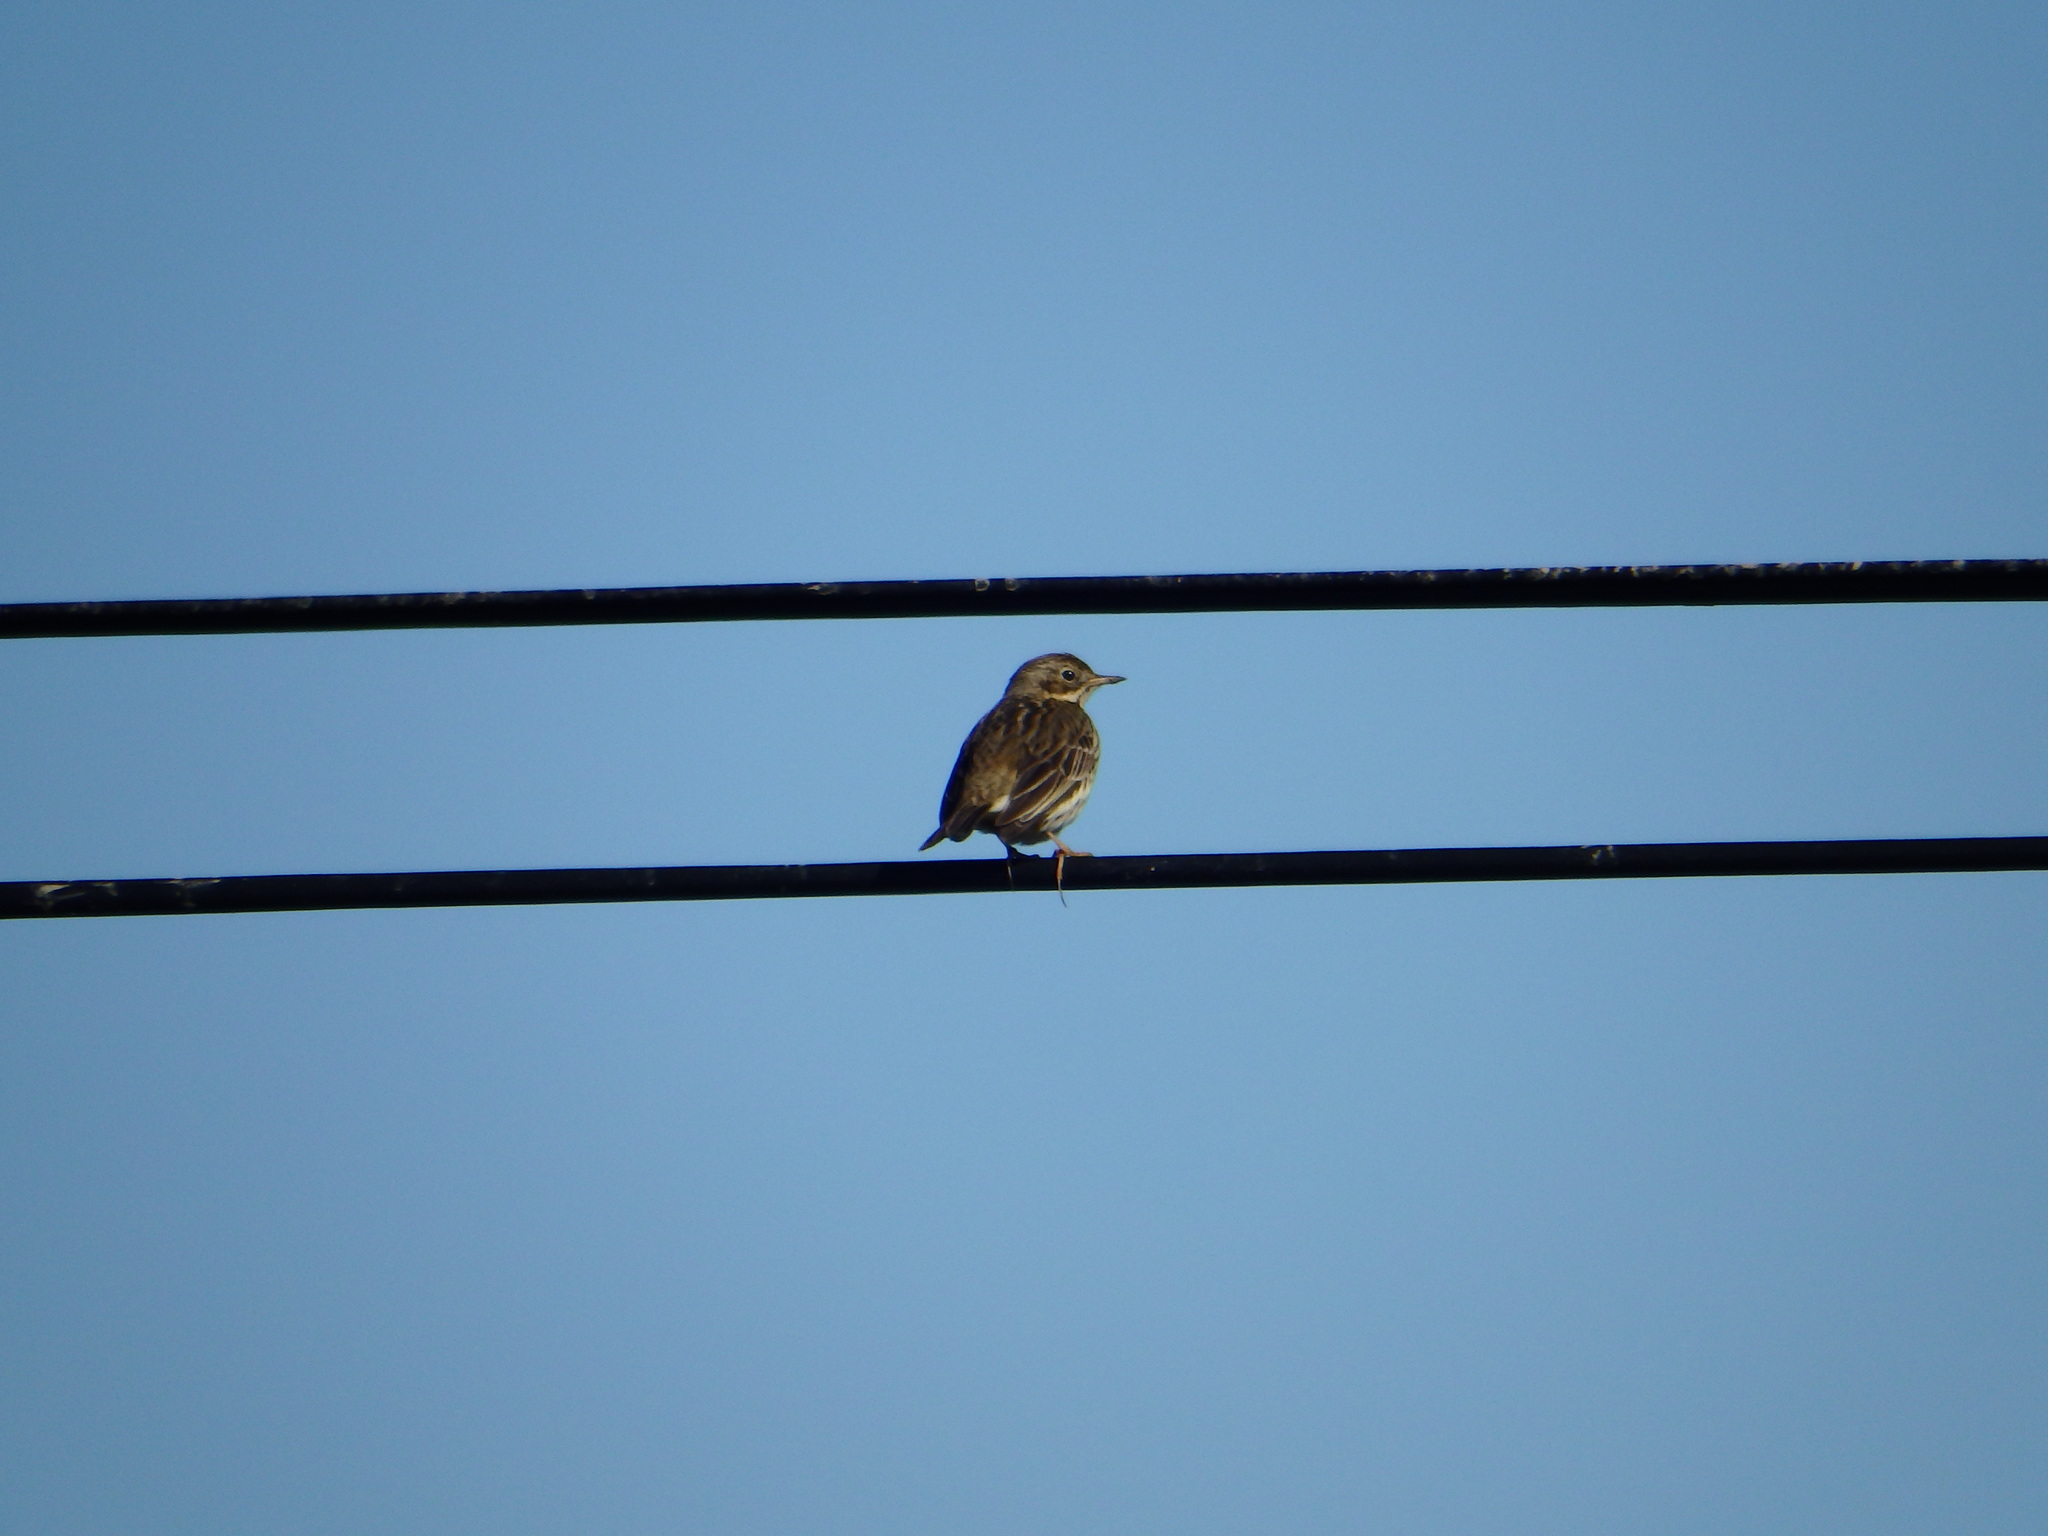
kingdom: Animalia
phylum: Chordata
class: Aves
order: Passeriformes
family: Motacillidae
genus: Anthus
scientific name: Anthus pratensis
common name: Meadow pipit
